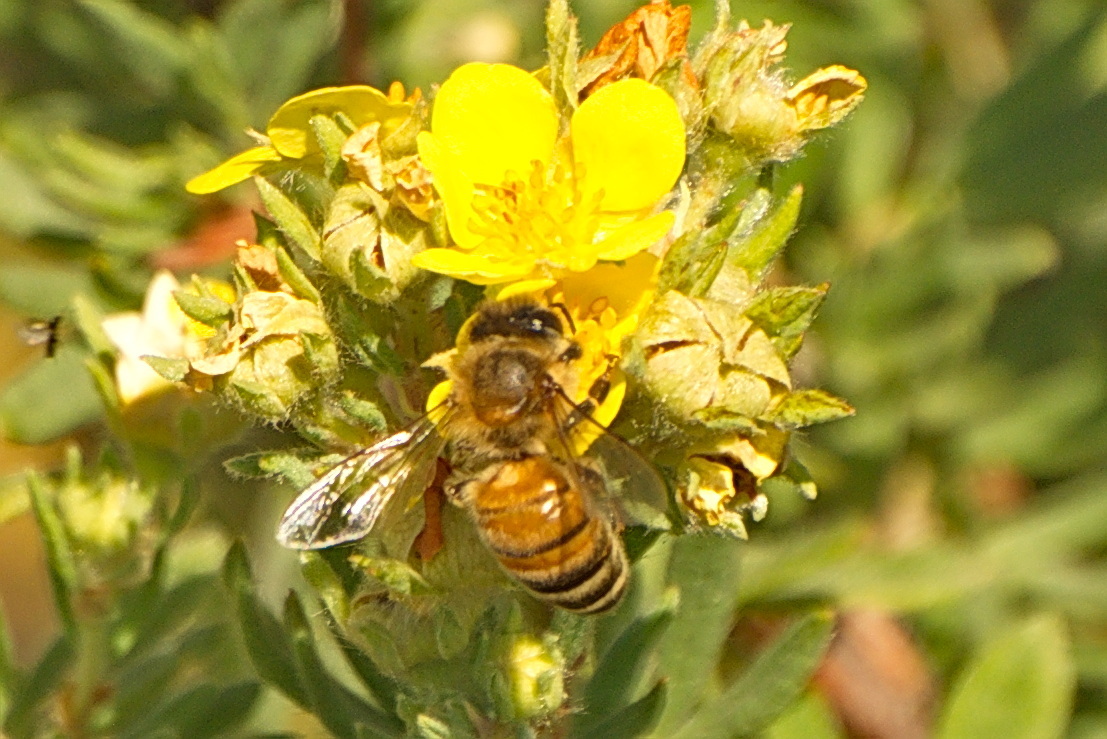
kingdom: Animalia
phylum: Arthropoda
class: Insecta
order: Hymenoptera
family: Apidae
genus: Apis
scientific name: Apis mellifera
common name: Honey bee
